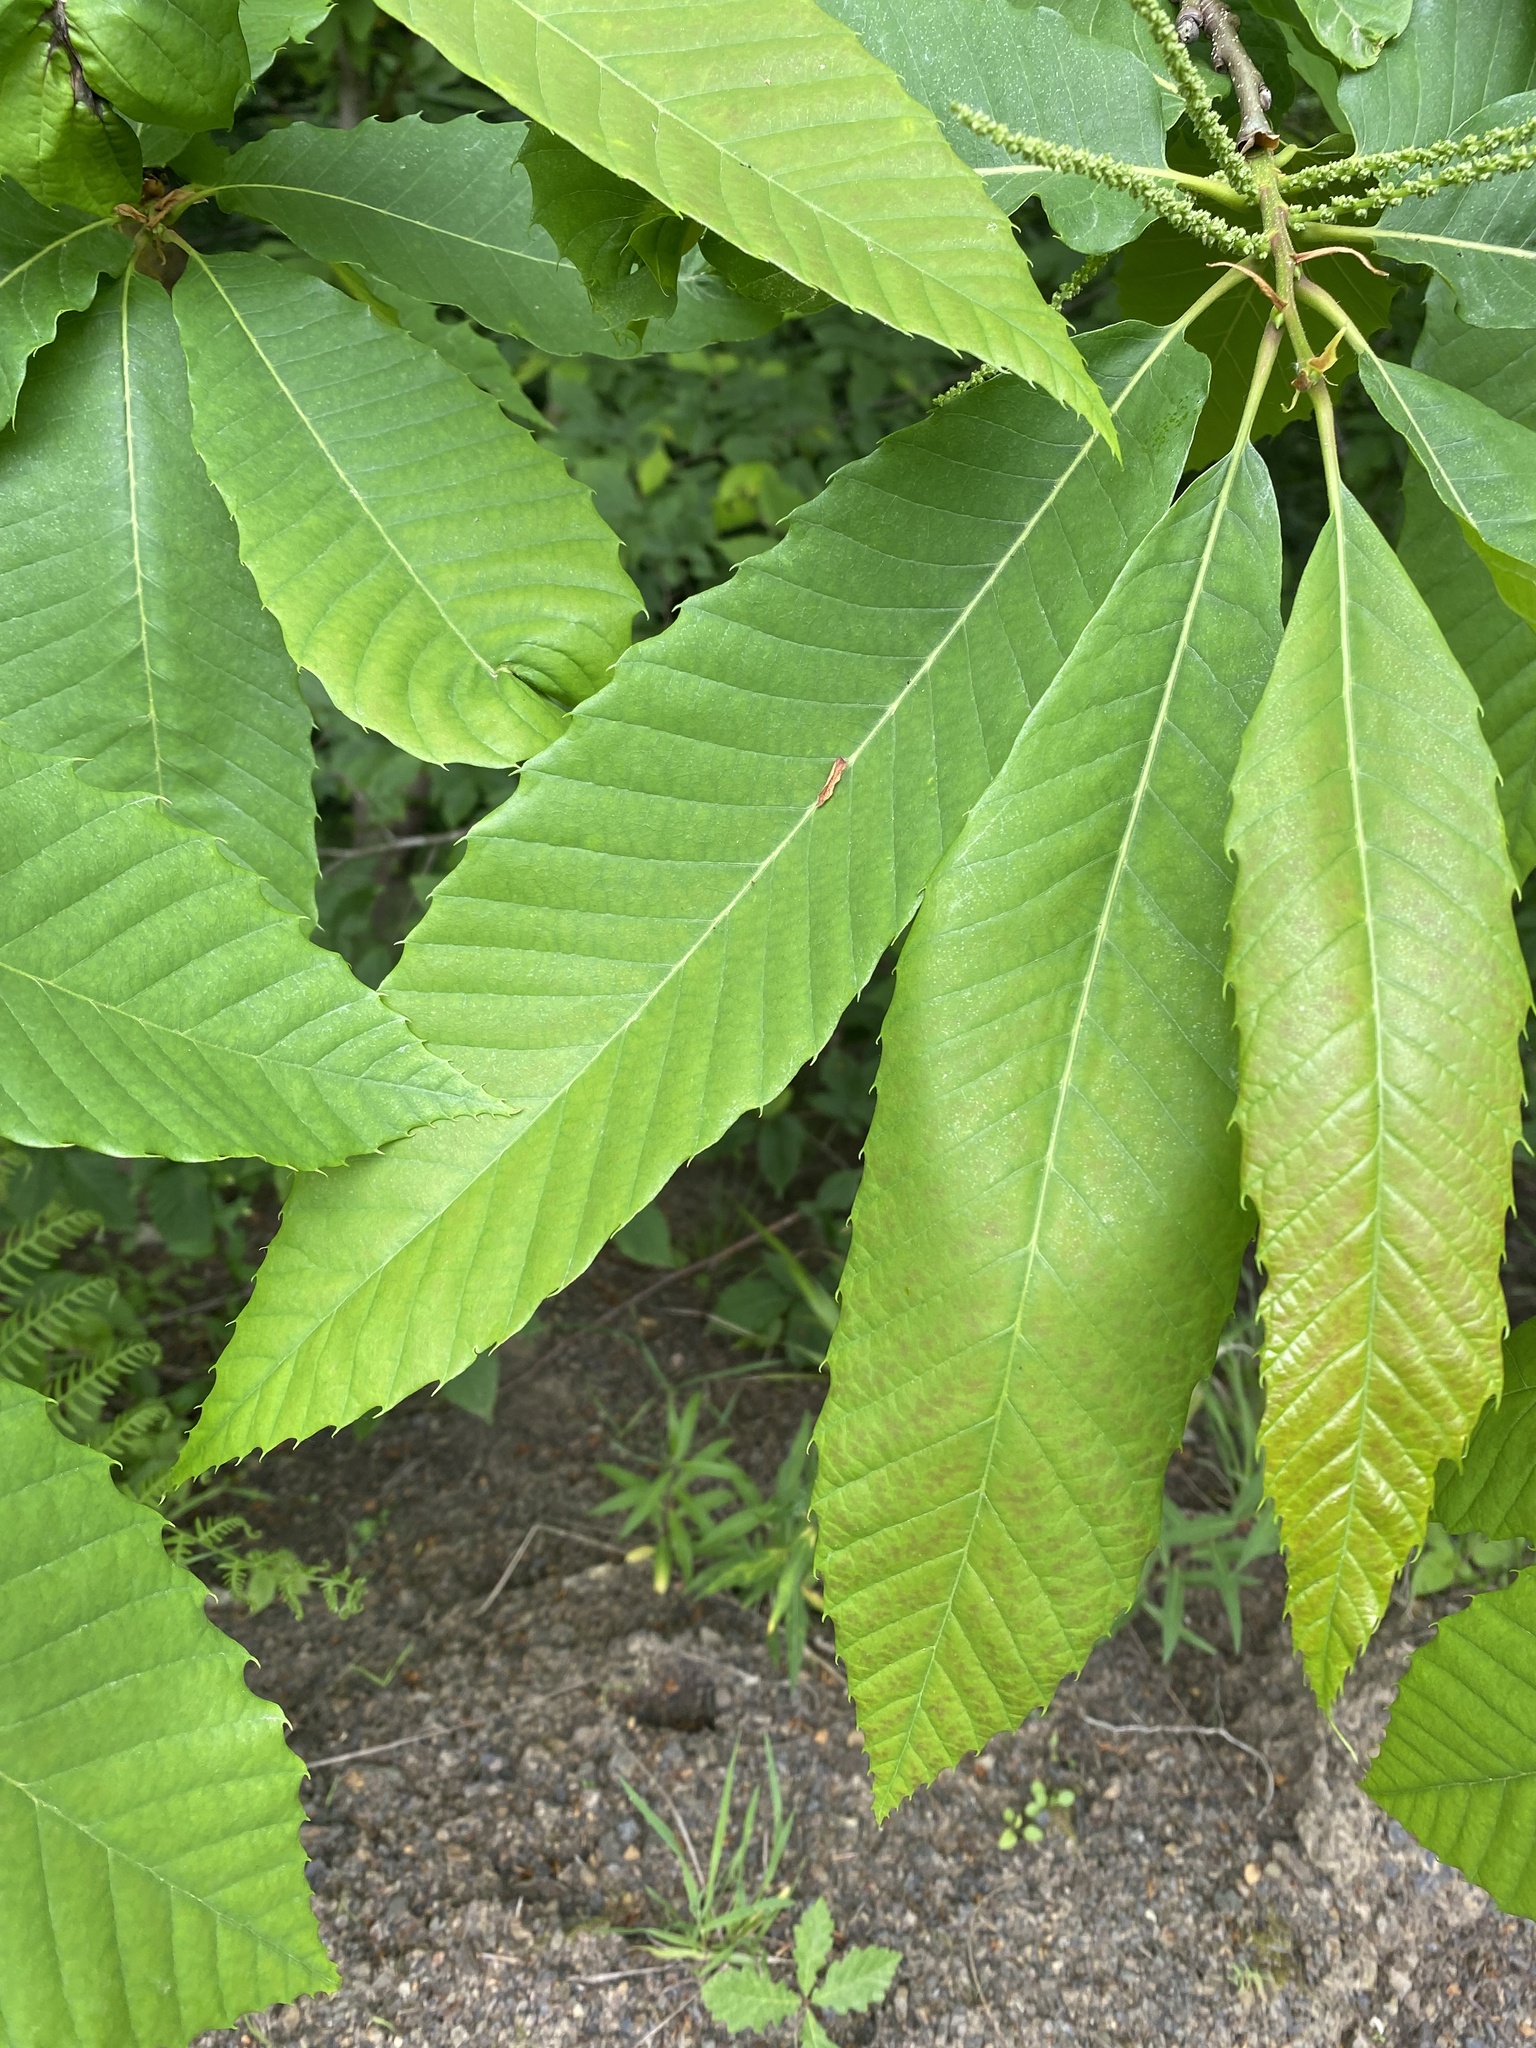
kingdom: Plantae
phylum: Tracheophyta
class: Magnoliopsida
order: Fagales
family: Fagaceae
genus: Castanea
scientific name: Castanea sativa
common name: Sweet chestnut
